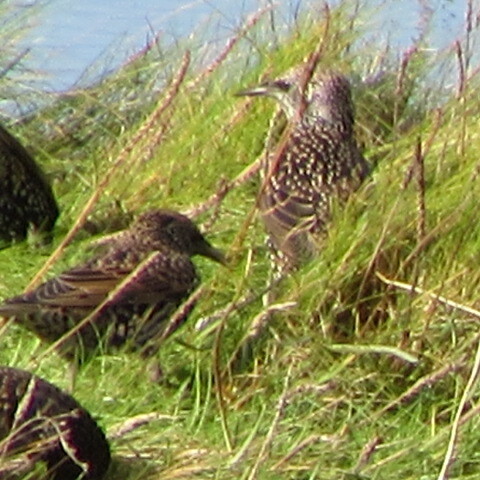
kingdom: Animalia
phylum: Chordata
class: Aves
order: Passeriformes
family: Sturnidae
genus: Sturnus
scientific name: Sturnus vulgaris
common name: Common starling
